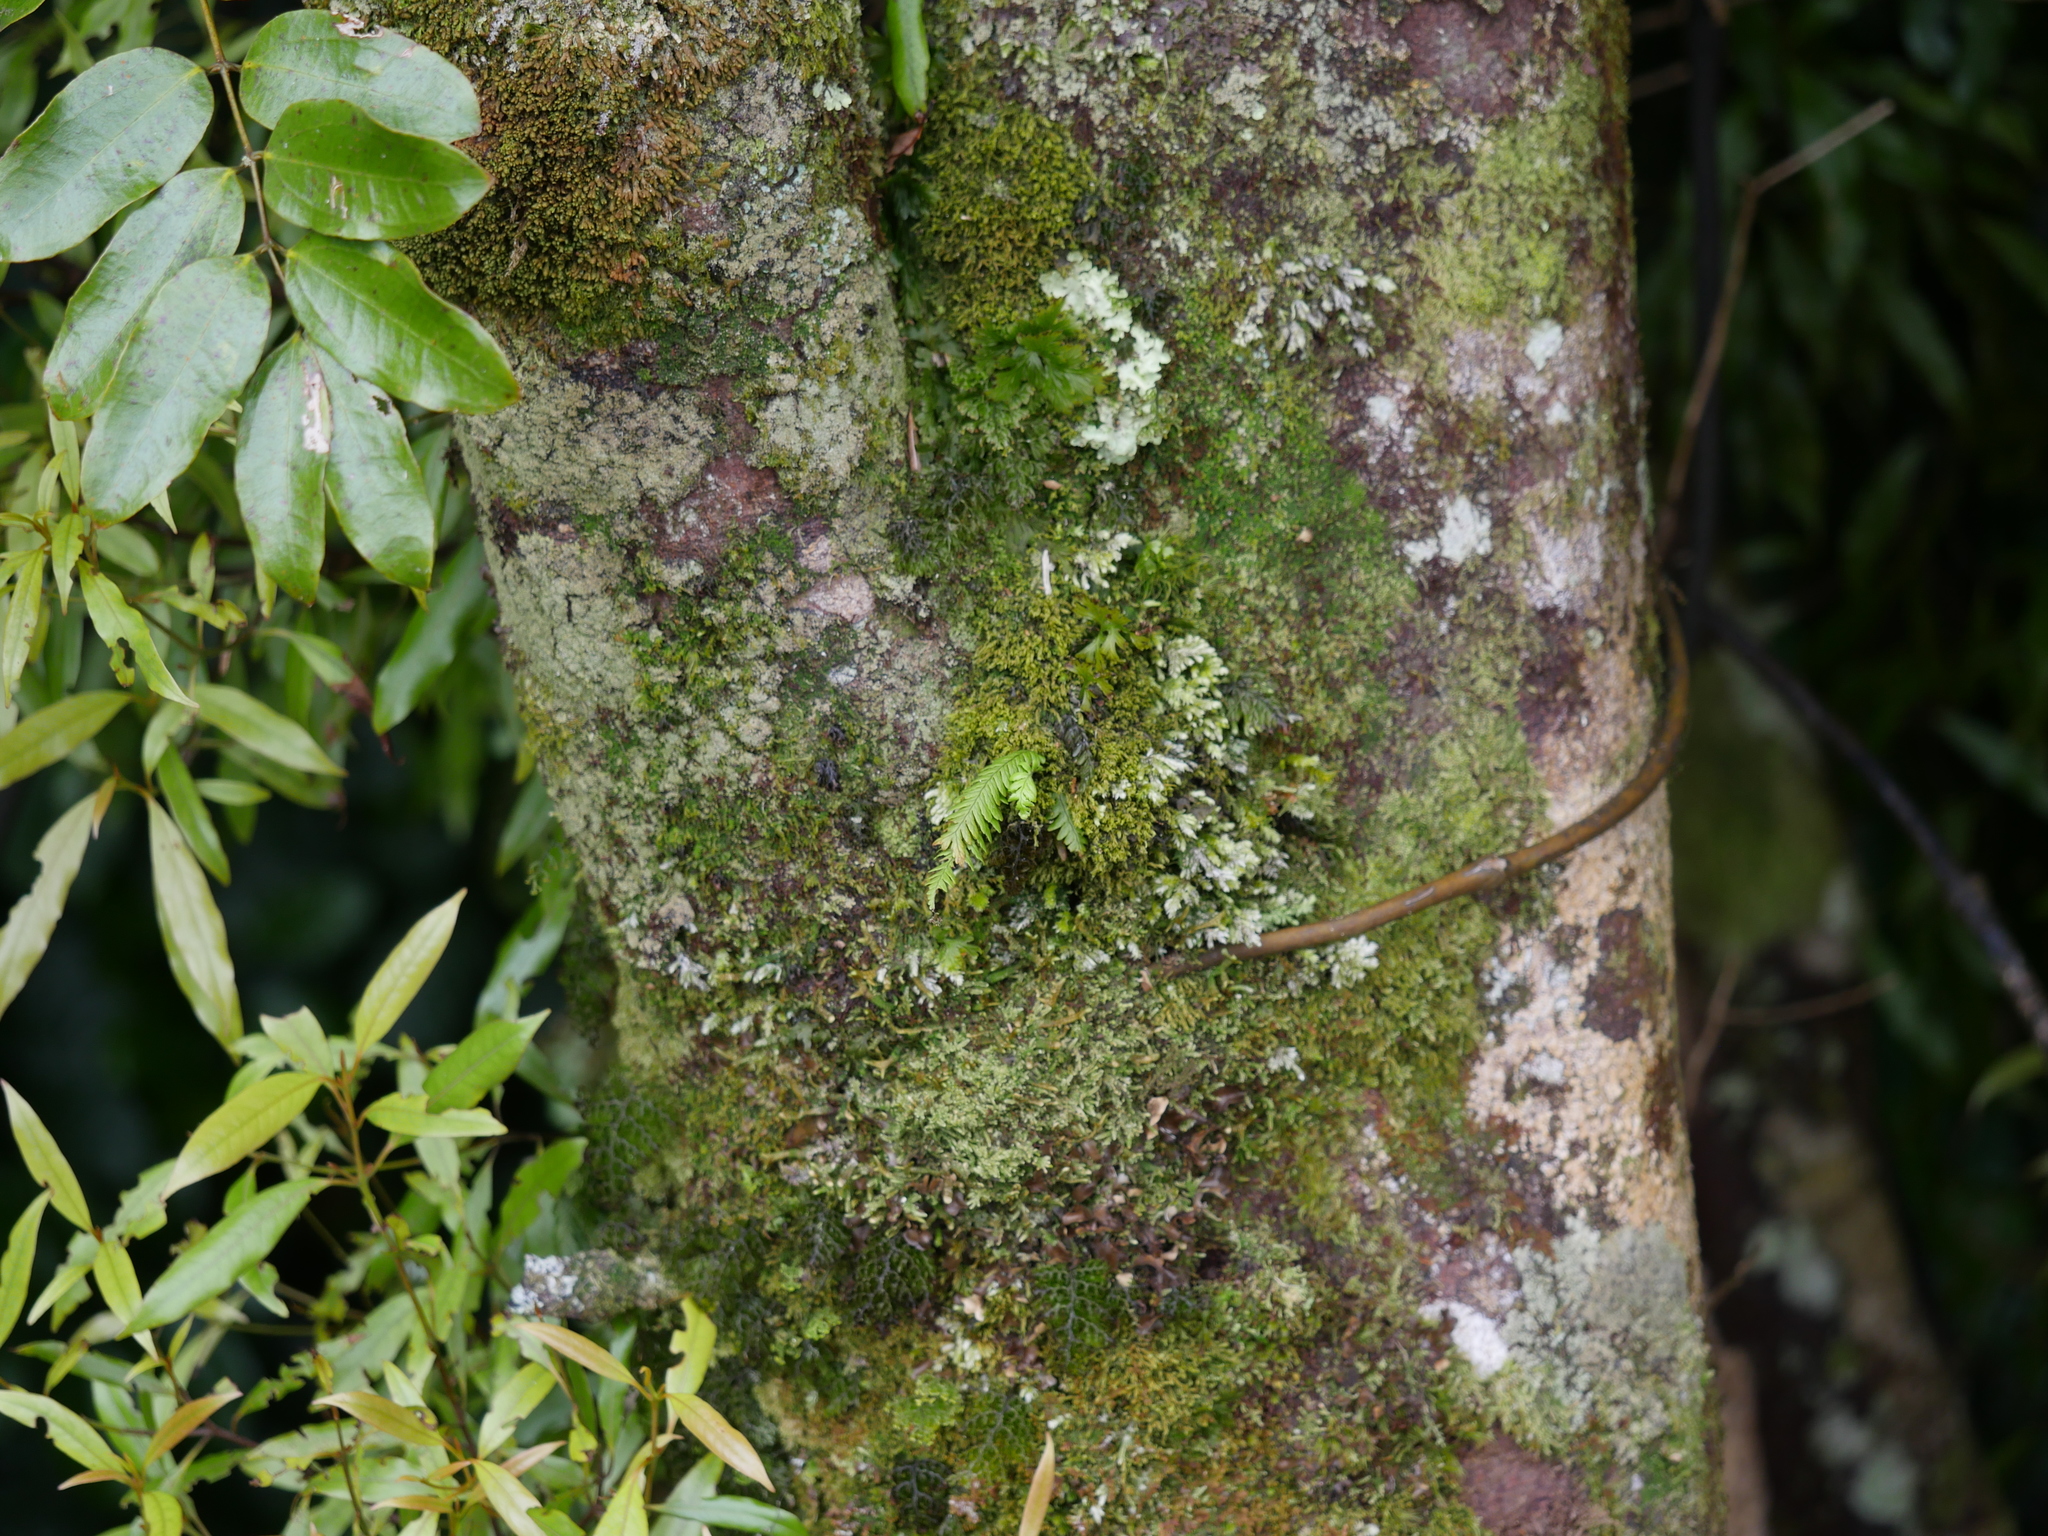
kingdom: Plantae
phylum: Tracheophyta
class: Polypodiopsida
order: Polypodiales
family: Polypodiaceae
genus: Notogrammitis
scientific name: Notogrammitis heterophylla
